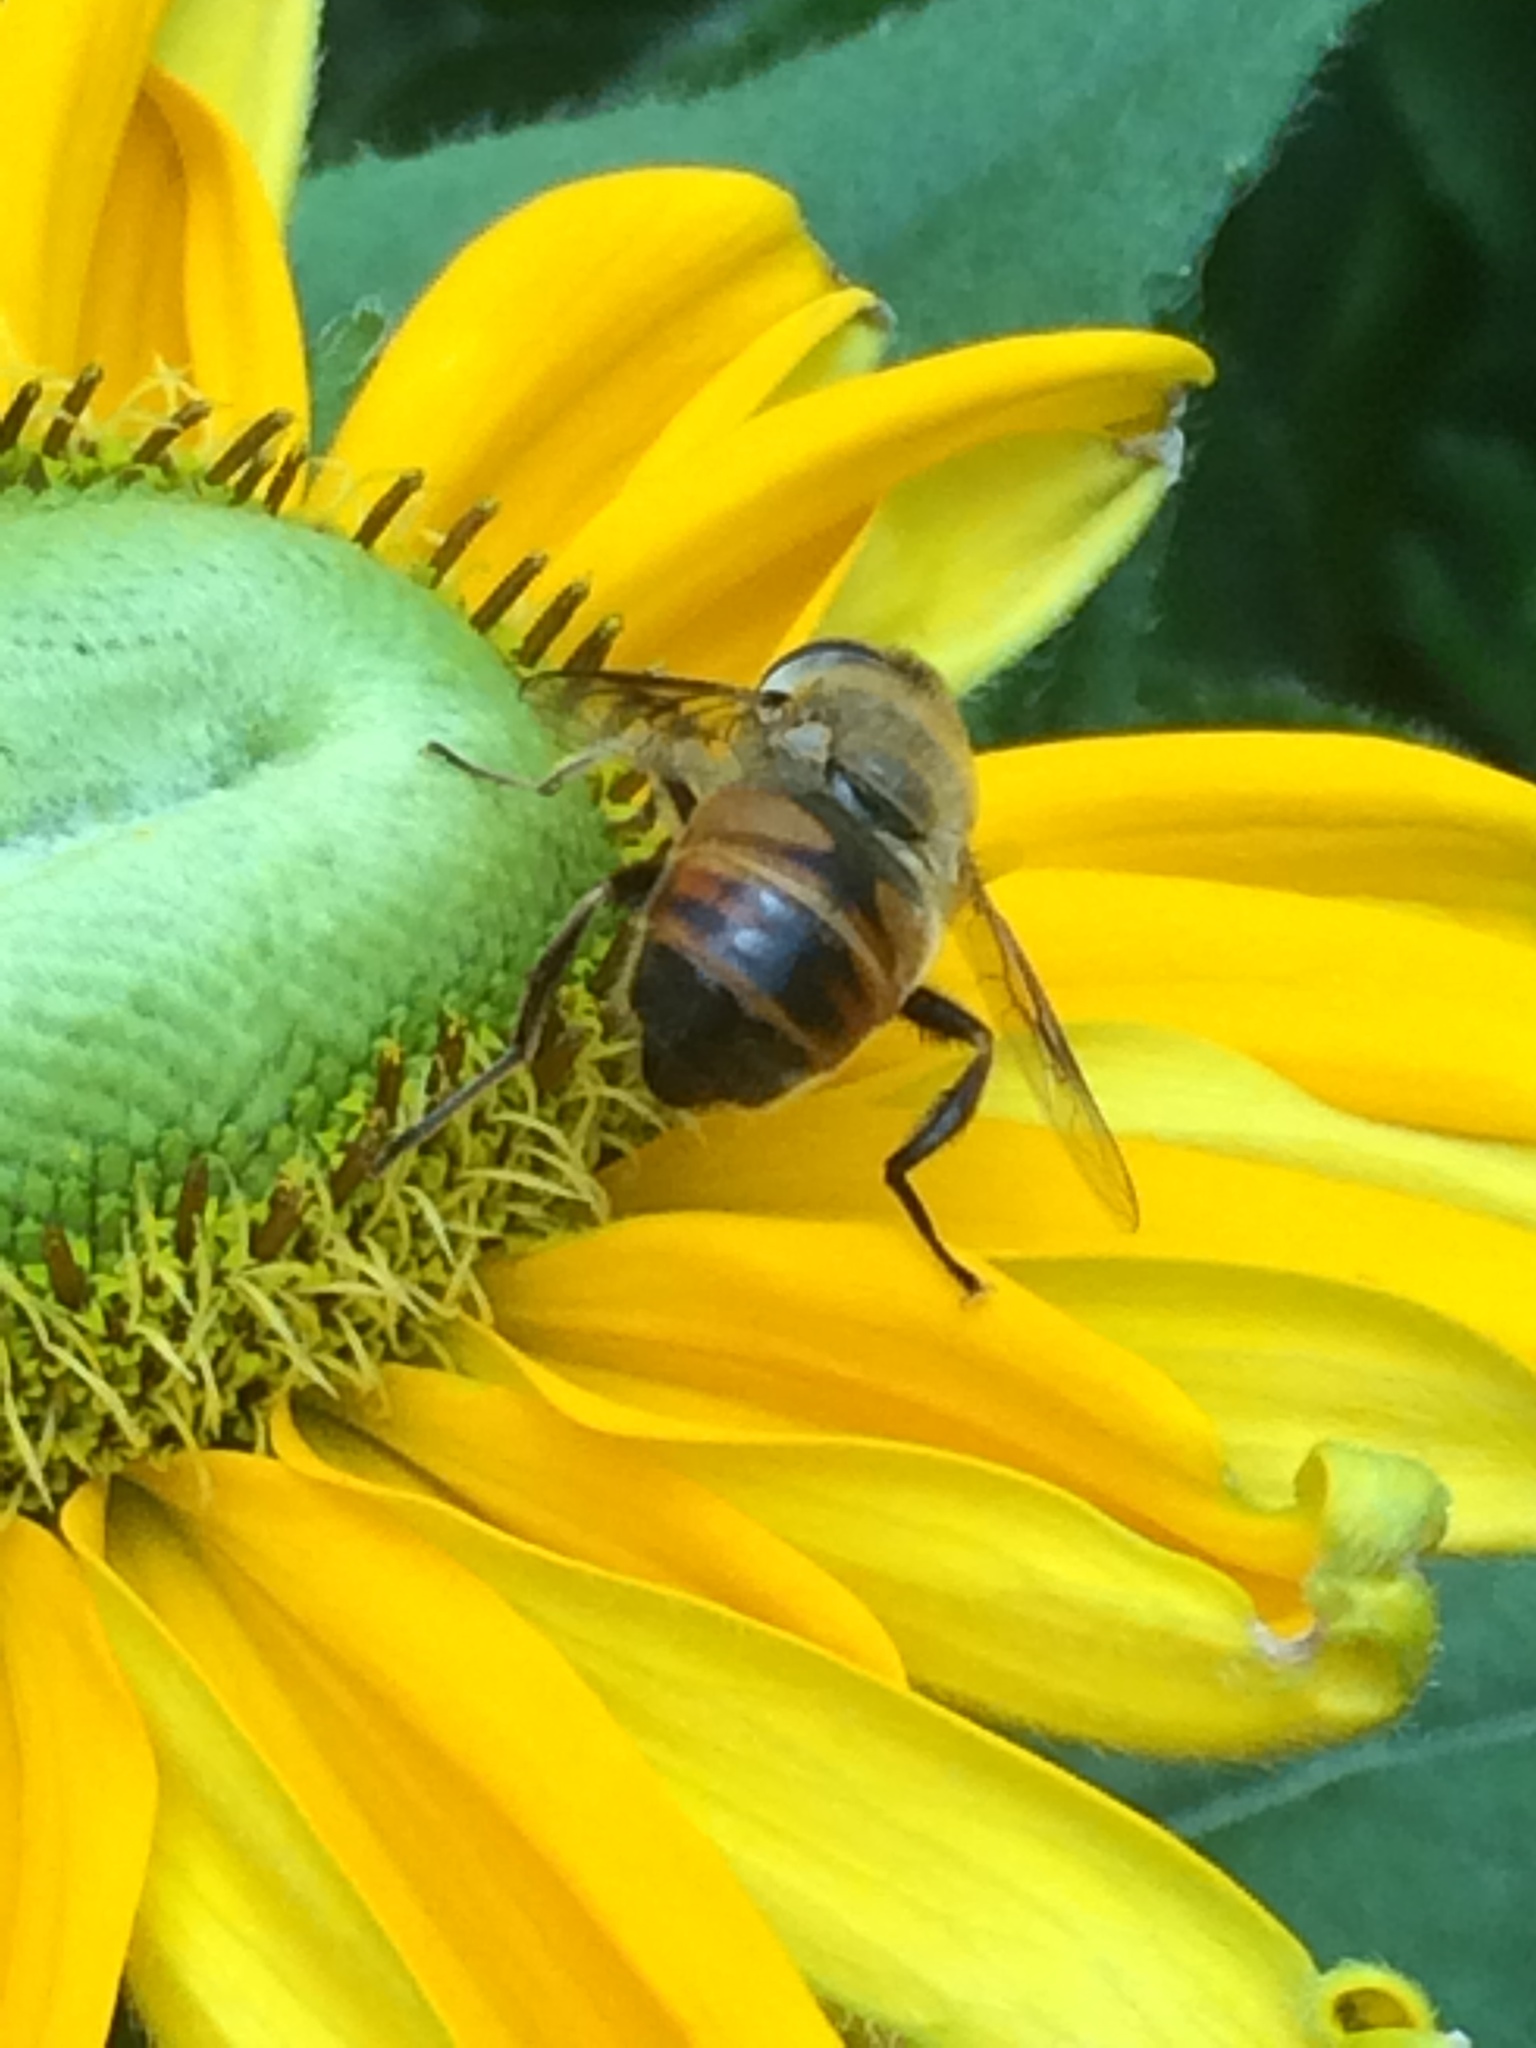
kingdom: Animalia
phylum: Arthropoda
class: Insecta
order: Diptera
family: Syrphidae
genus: Eristalis
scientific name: Eristalis tenax
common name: Drone fly
